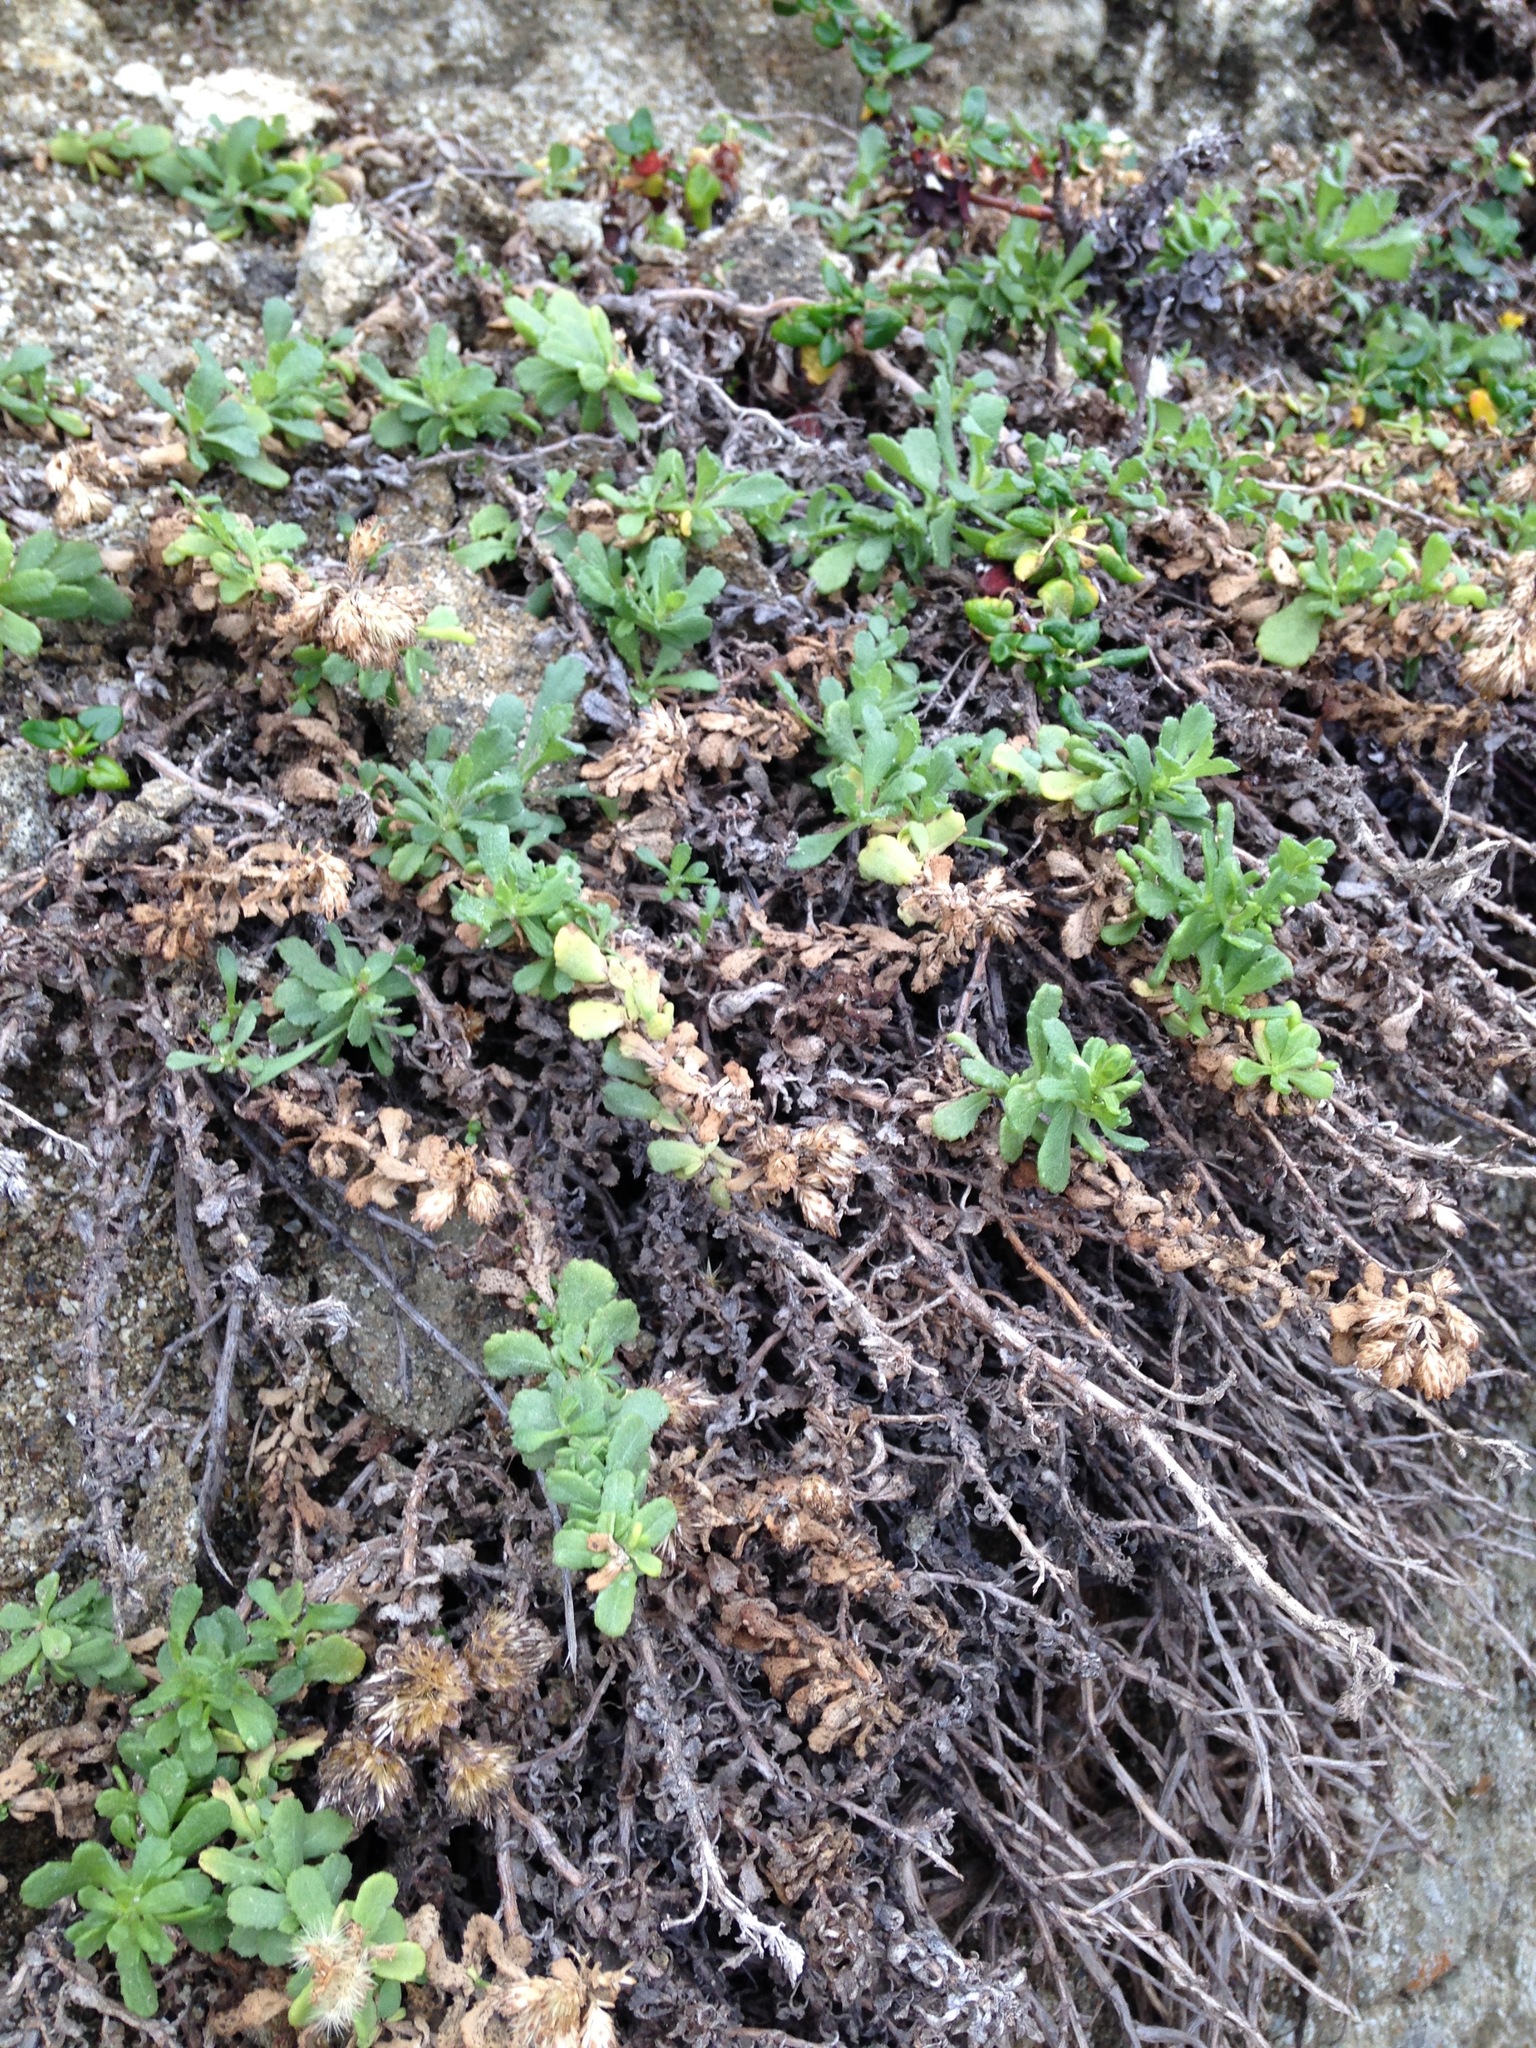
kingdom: Plantae
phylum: Tracheophyta
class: Magnoliopsida
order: Asterales
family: Asteraceae
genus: Isocoma
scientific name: Isocoma menziesii
